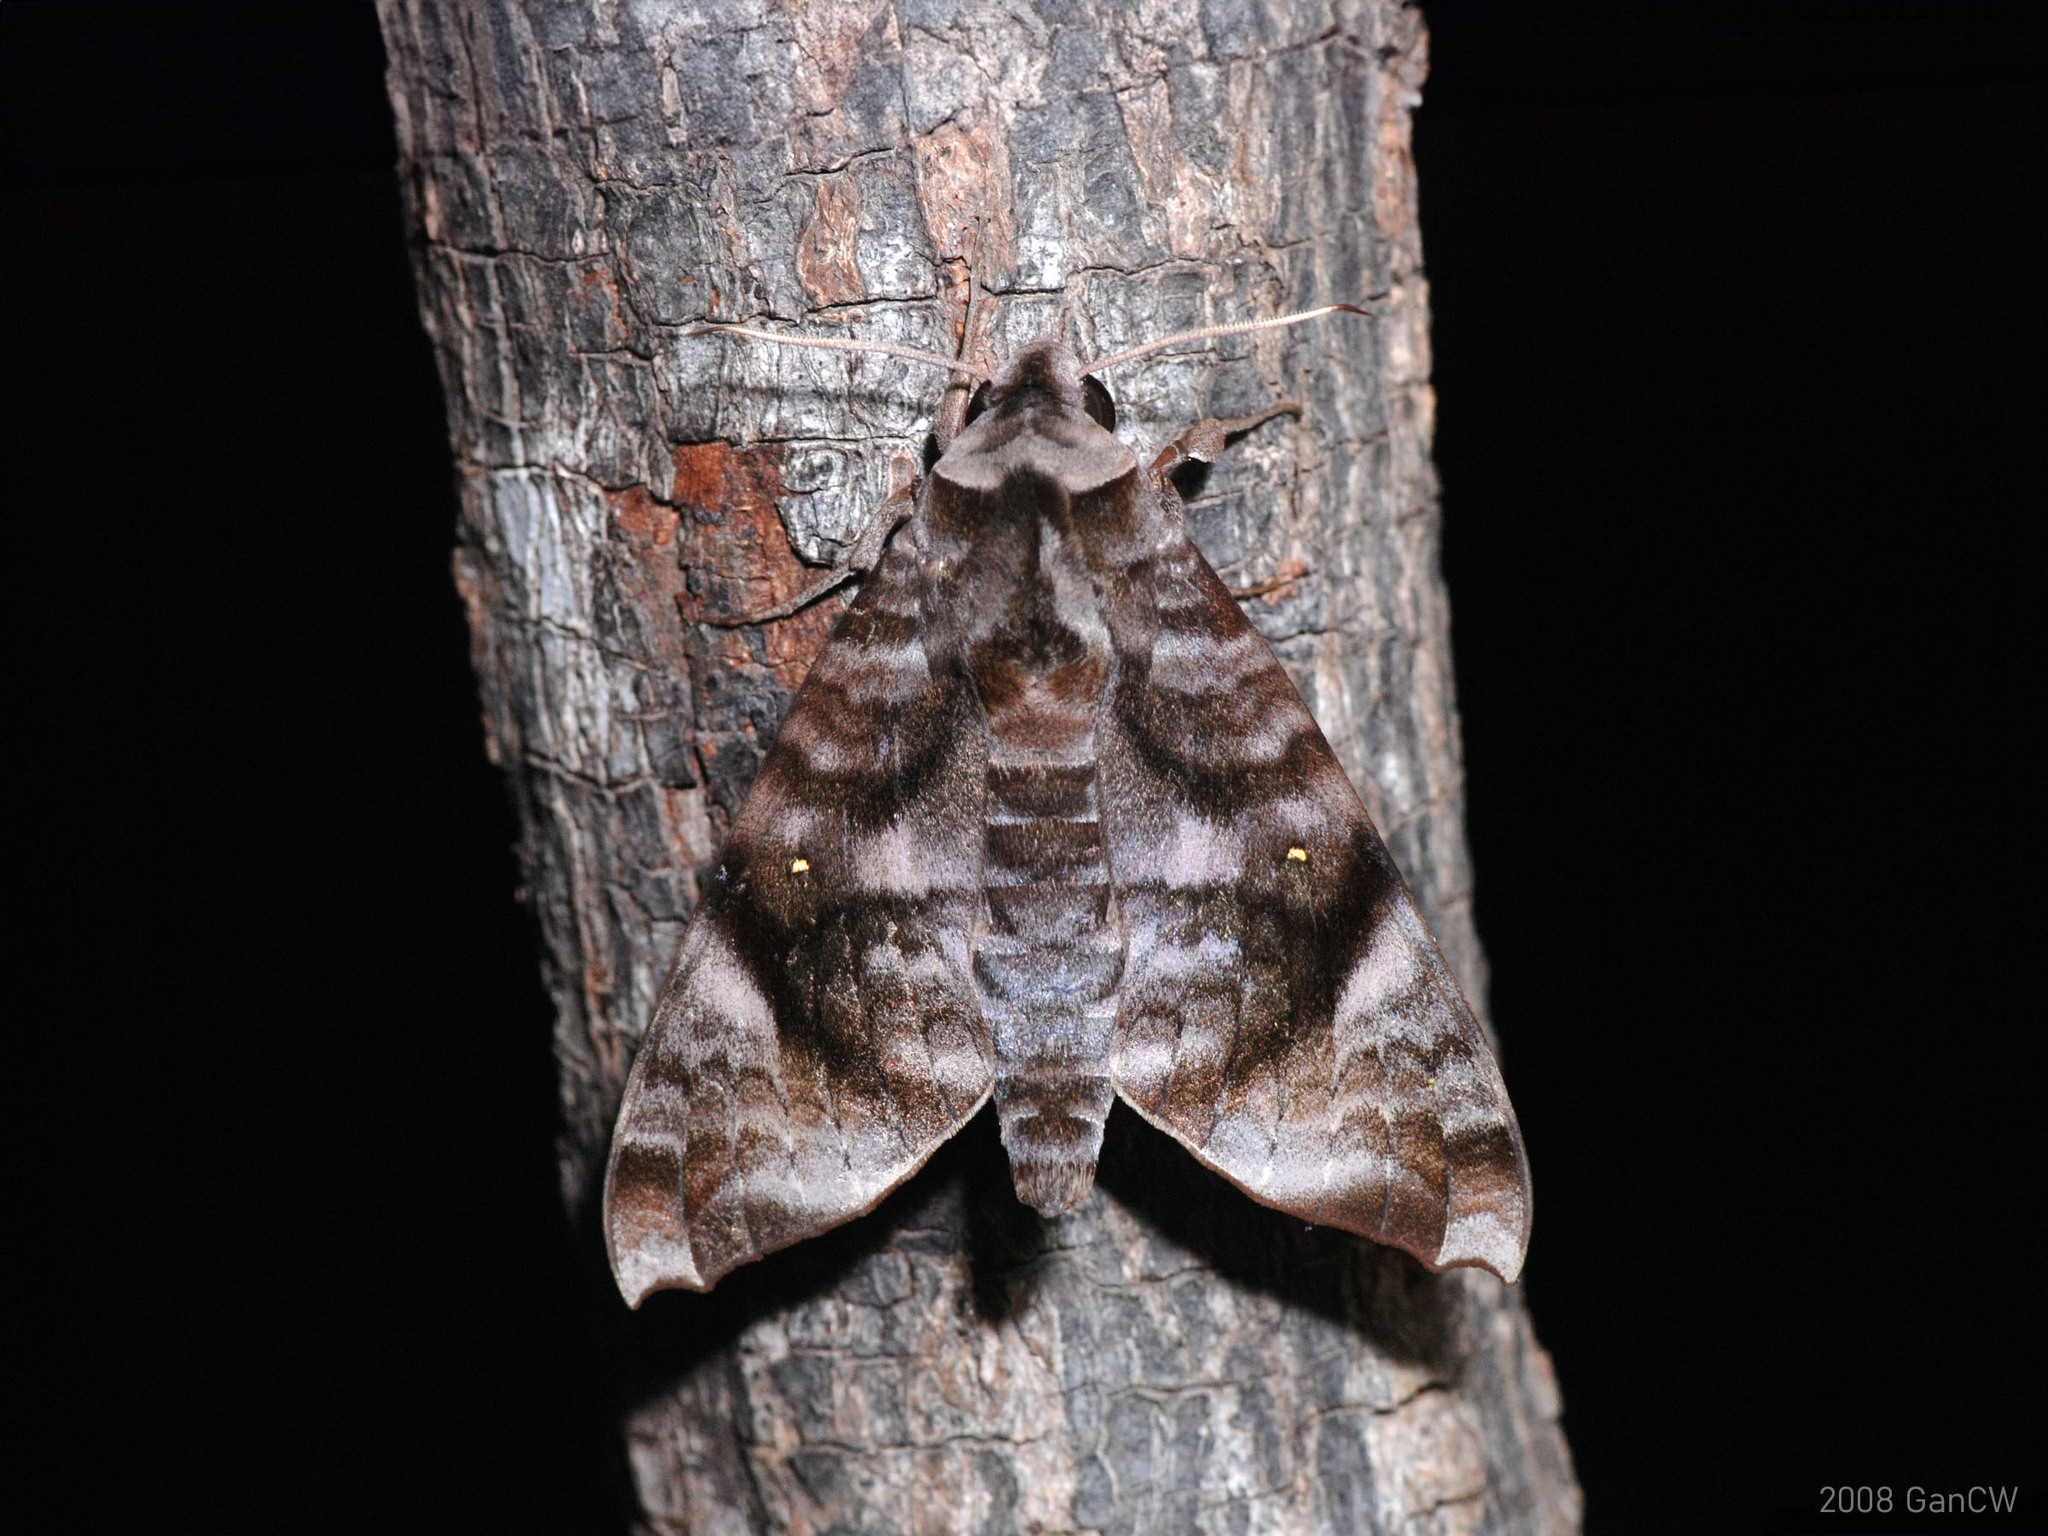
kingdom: Animalia
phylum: Arthropoda
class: Insecta
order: Lepidoptera
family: Sphingidae
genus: Acosmeryx
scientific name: Acosmeryx pseudonaga
